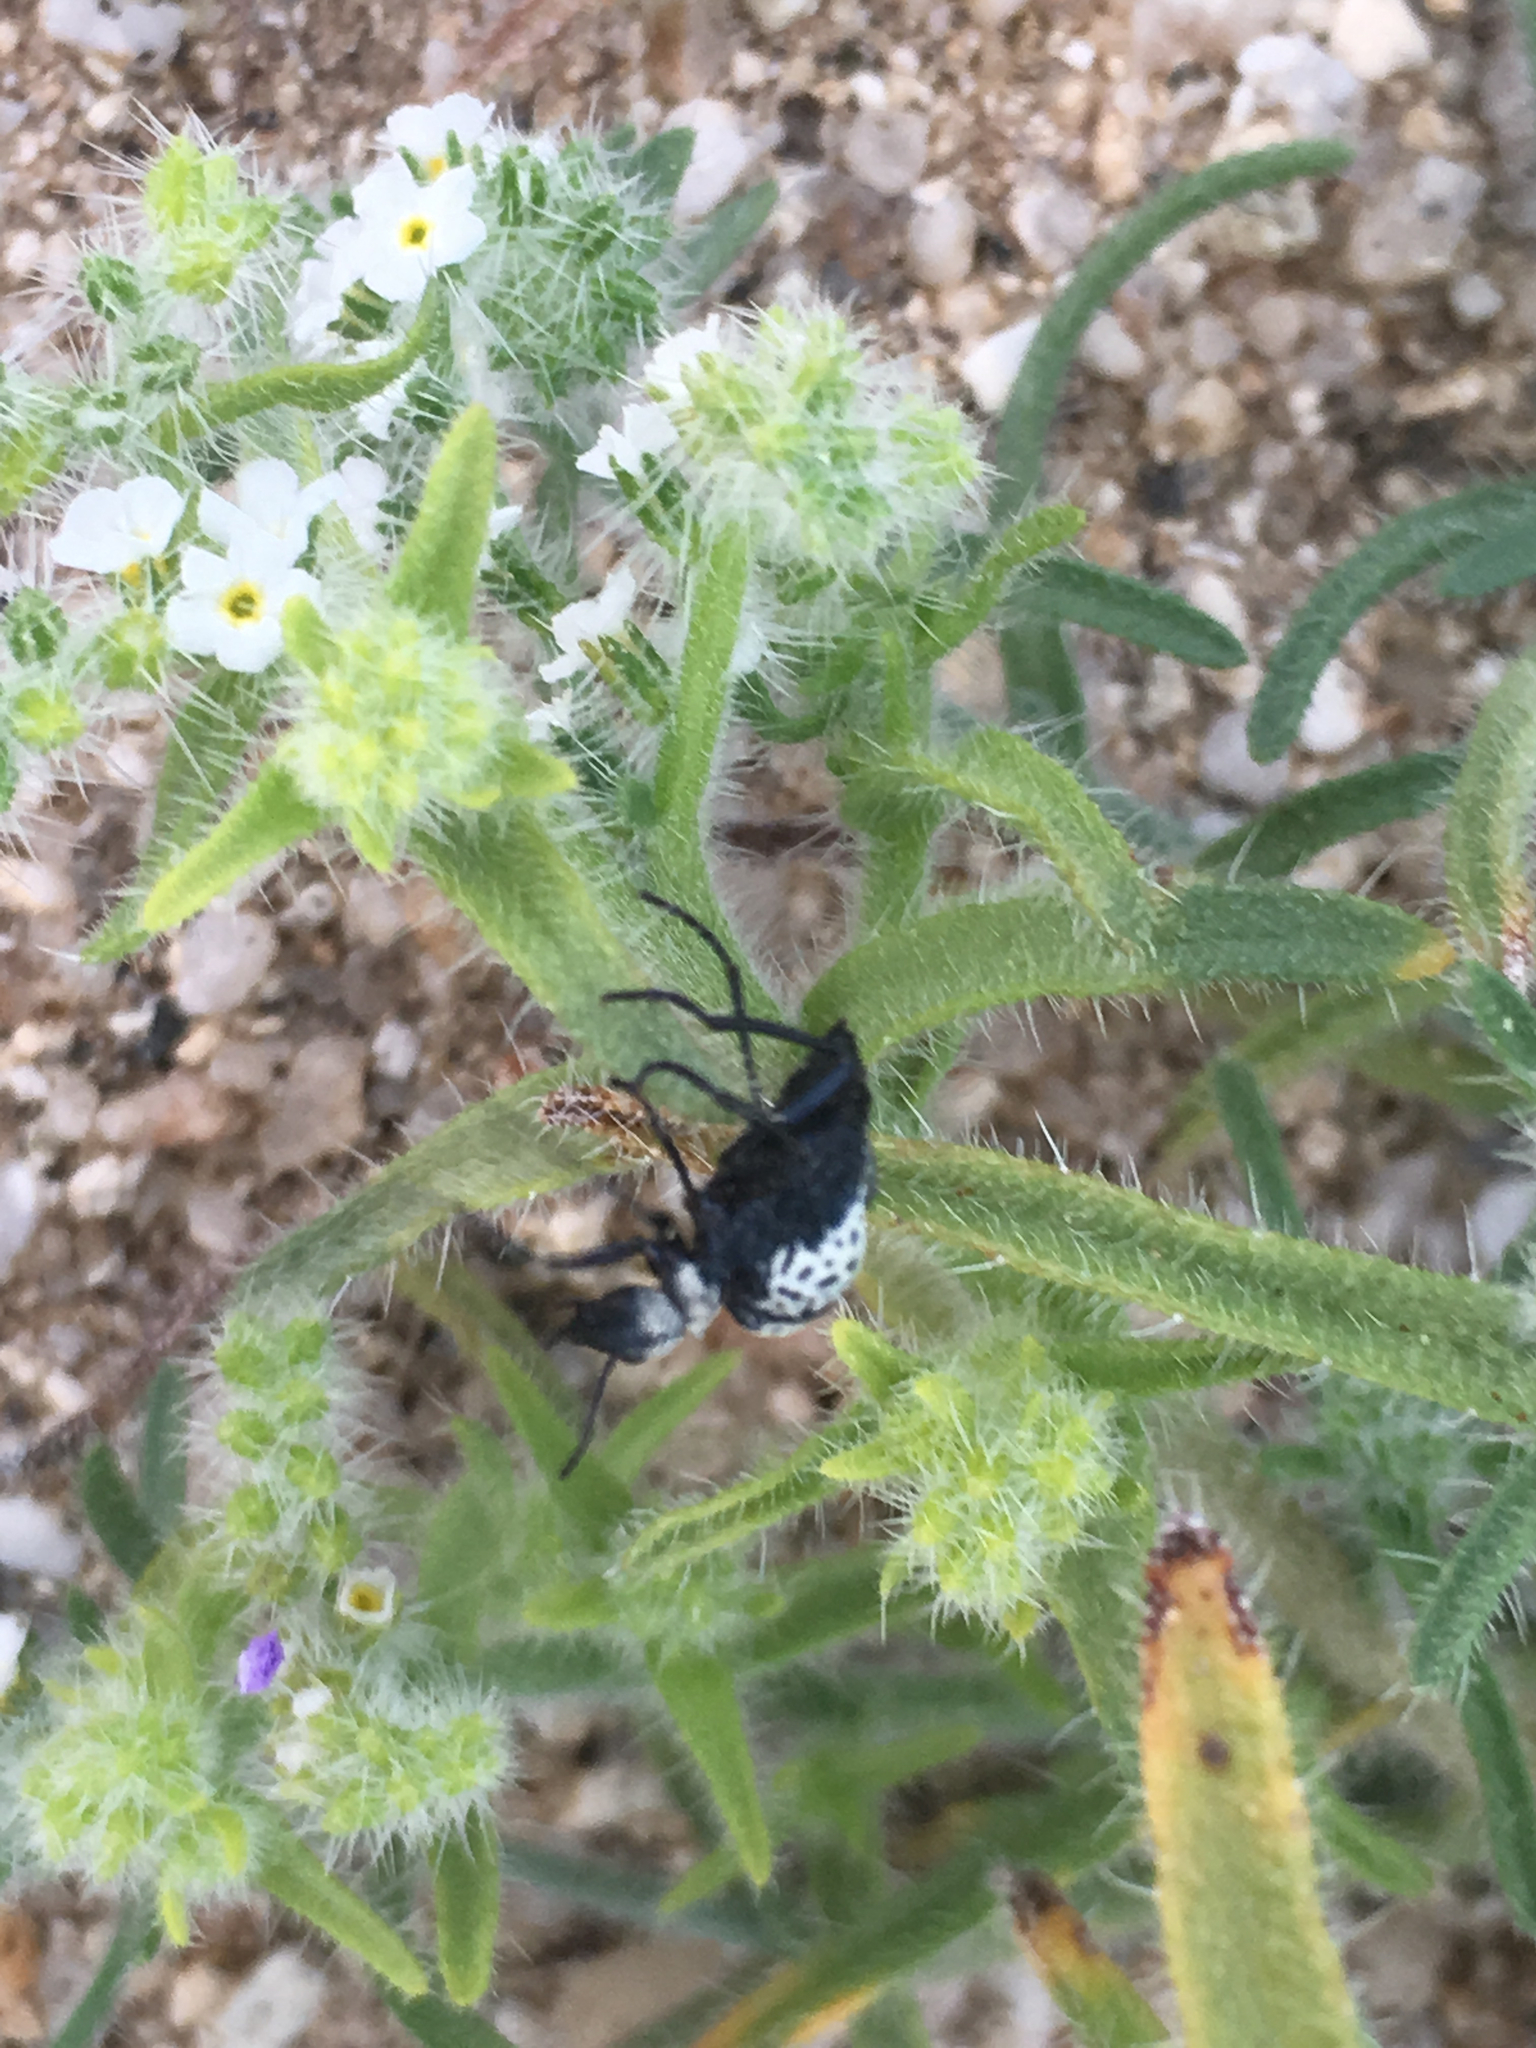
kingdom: Animalia
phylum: Arthropoda
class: Insecta
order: Coleoptera
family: Meloidae
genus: Cysteodemus
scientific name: Cysteodemus armatus
